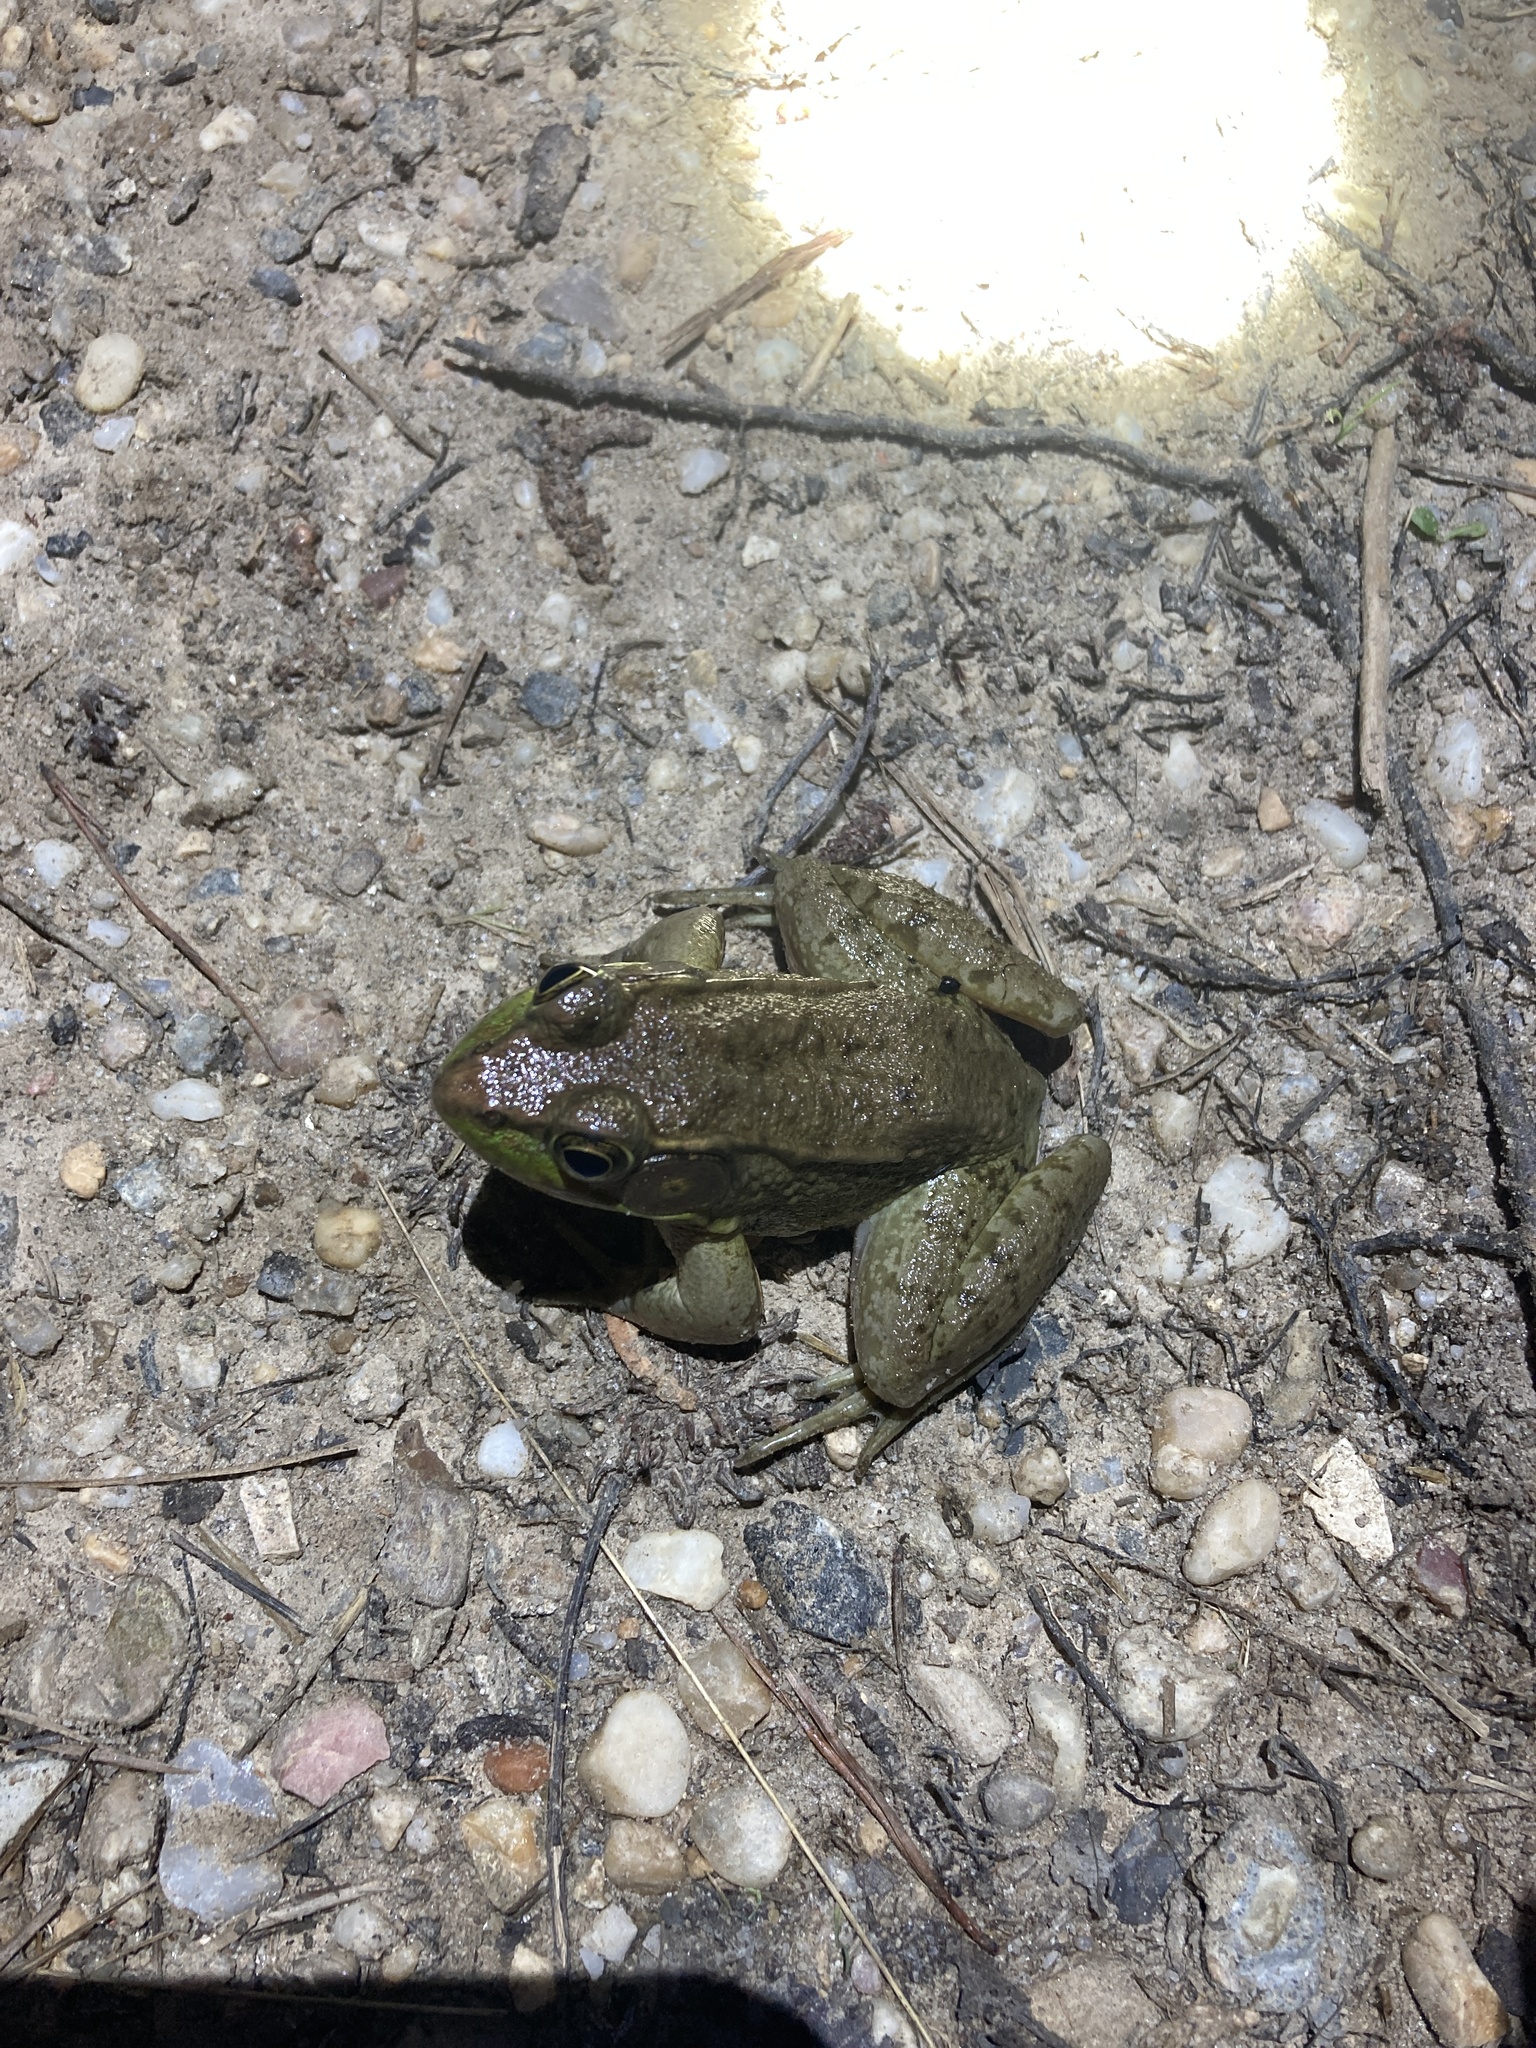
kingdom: Animalia
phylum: Chordata
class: Amphibia
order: Anura
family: Ranidae
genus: Lithobates
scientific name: Lithobates clamitans
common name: Green frog
